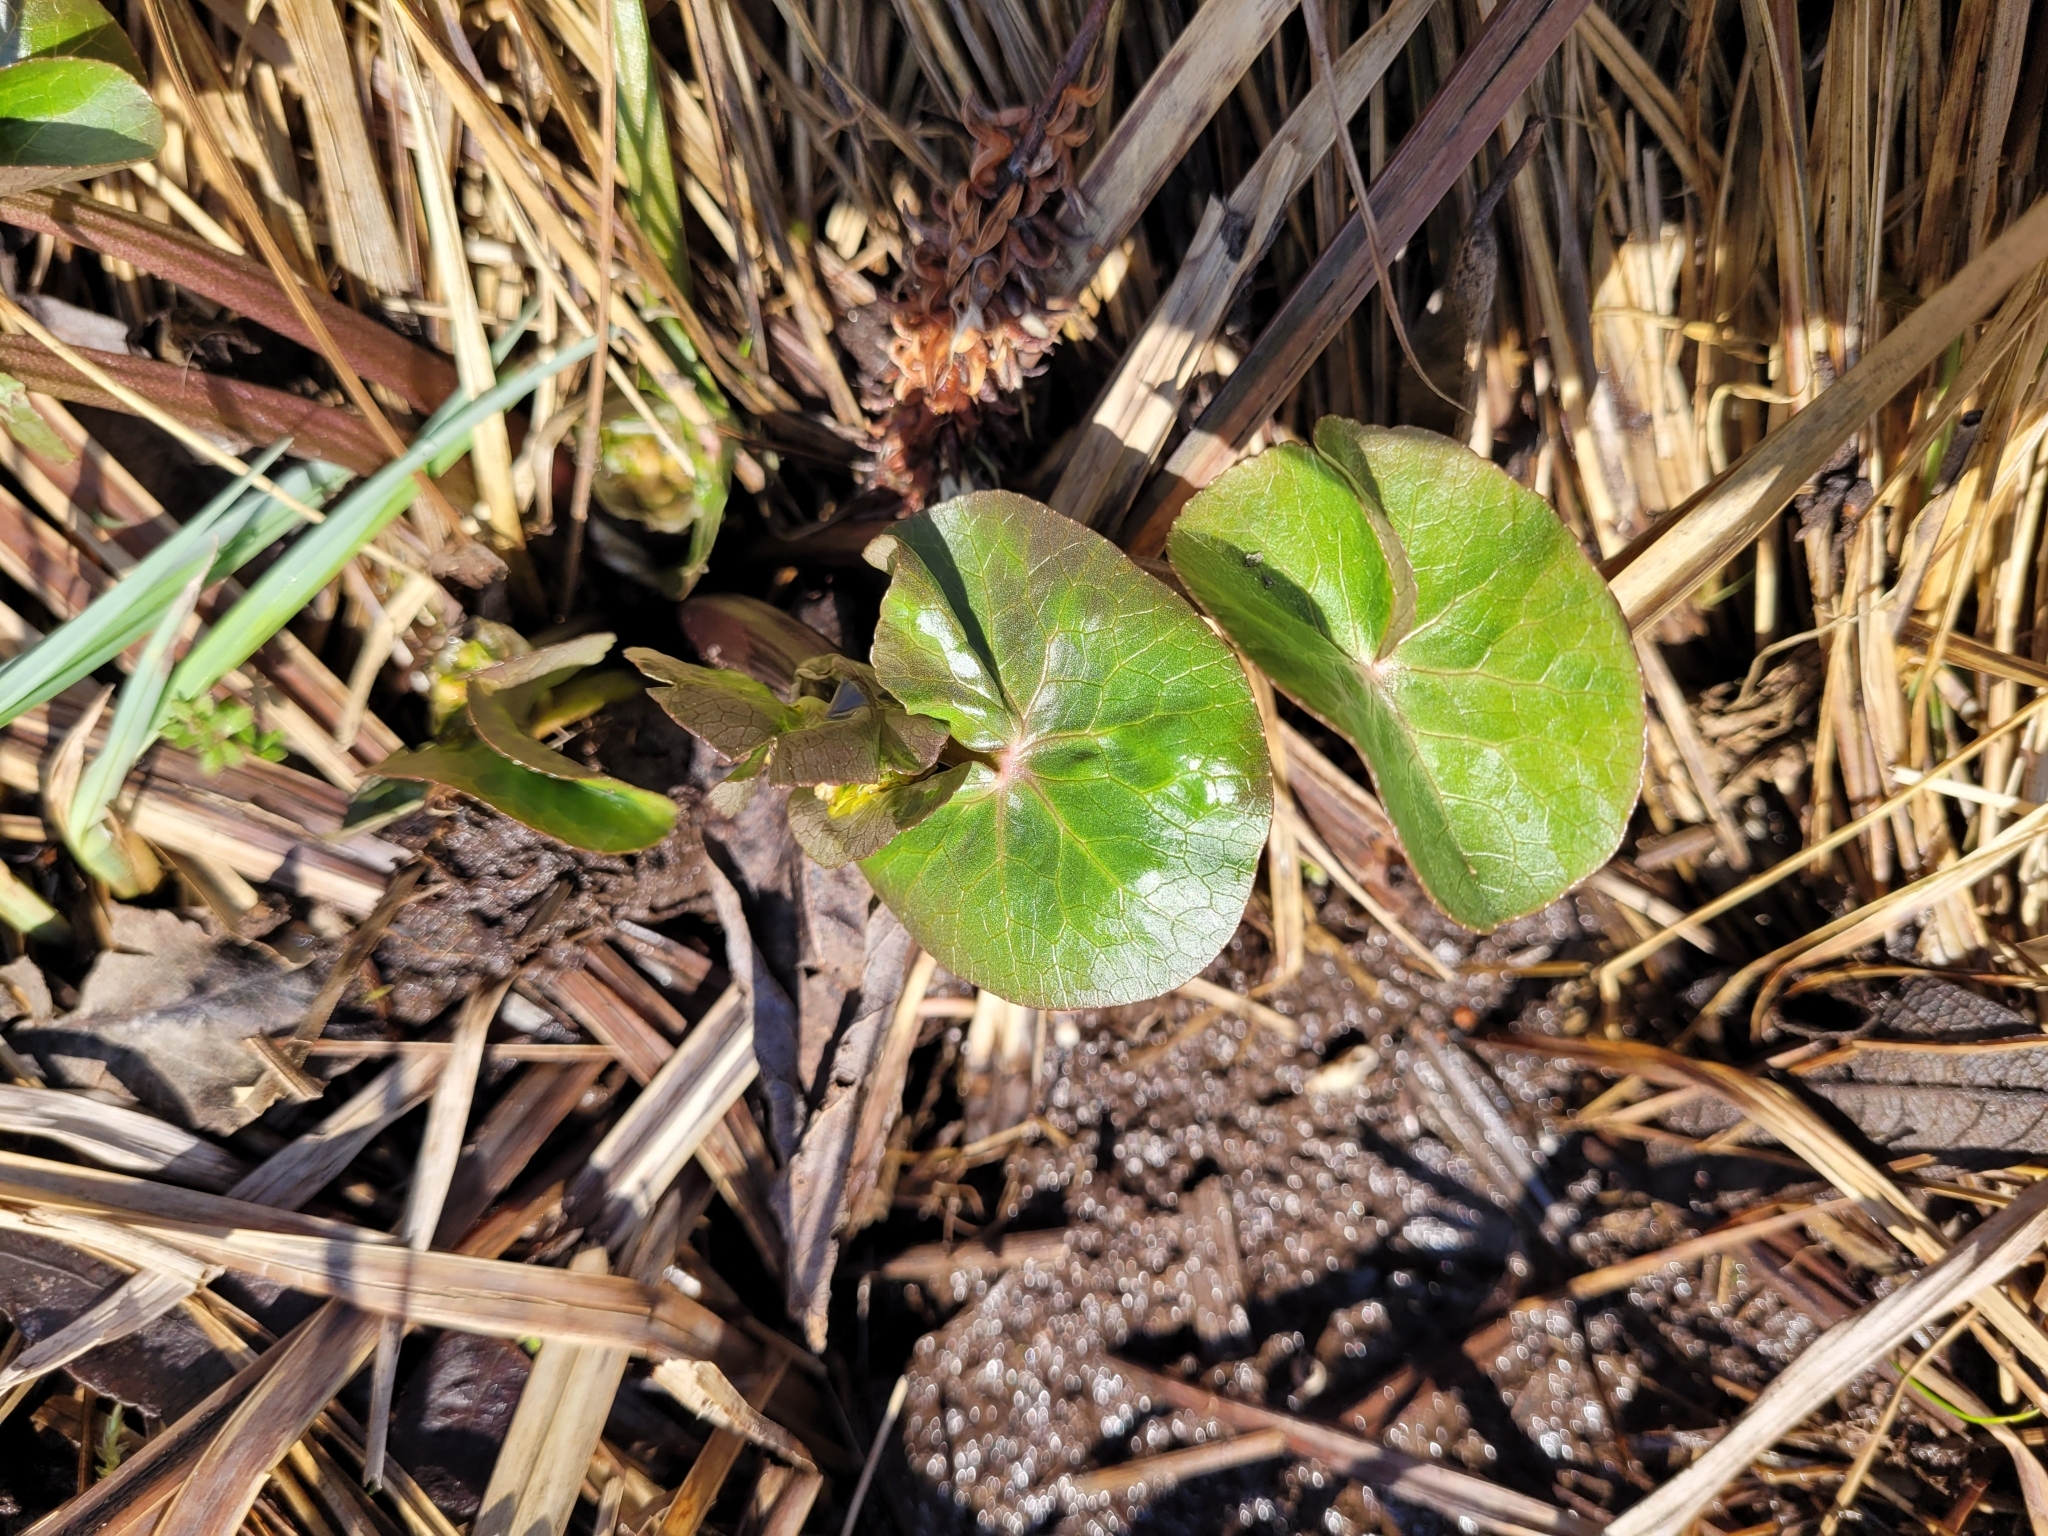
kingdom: Plantae
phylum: Tracheophyta
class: Magnoliopsida
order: Ranunculales
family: Ranunculaceae
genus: Caltha
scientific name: Caltha palustris
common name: Marsh marigold
